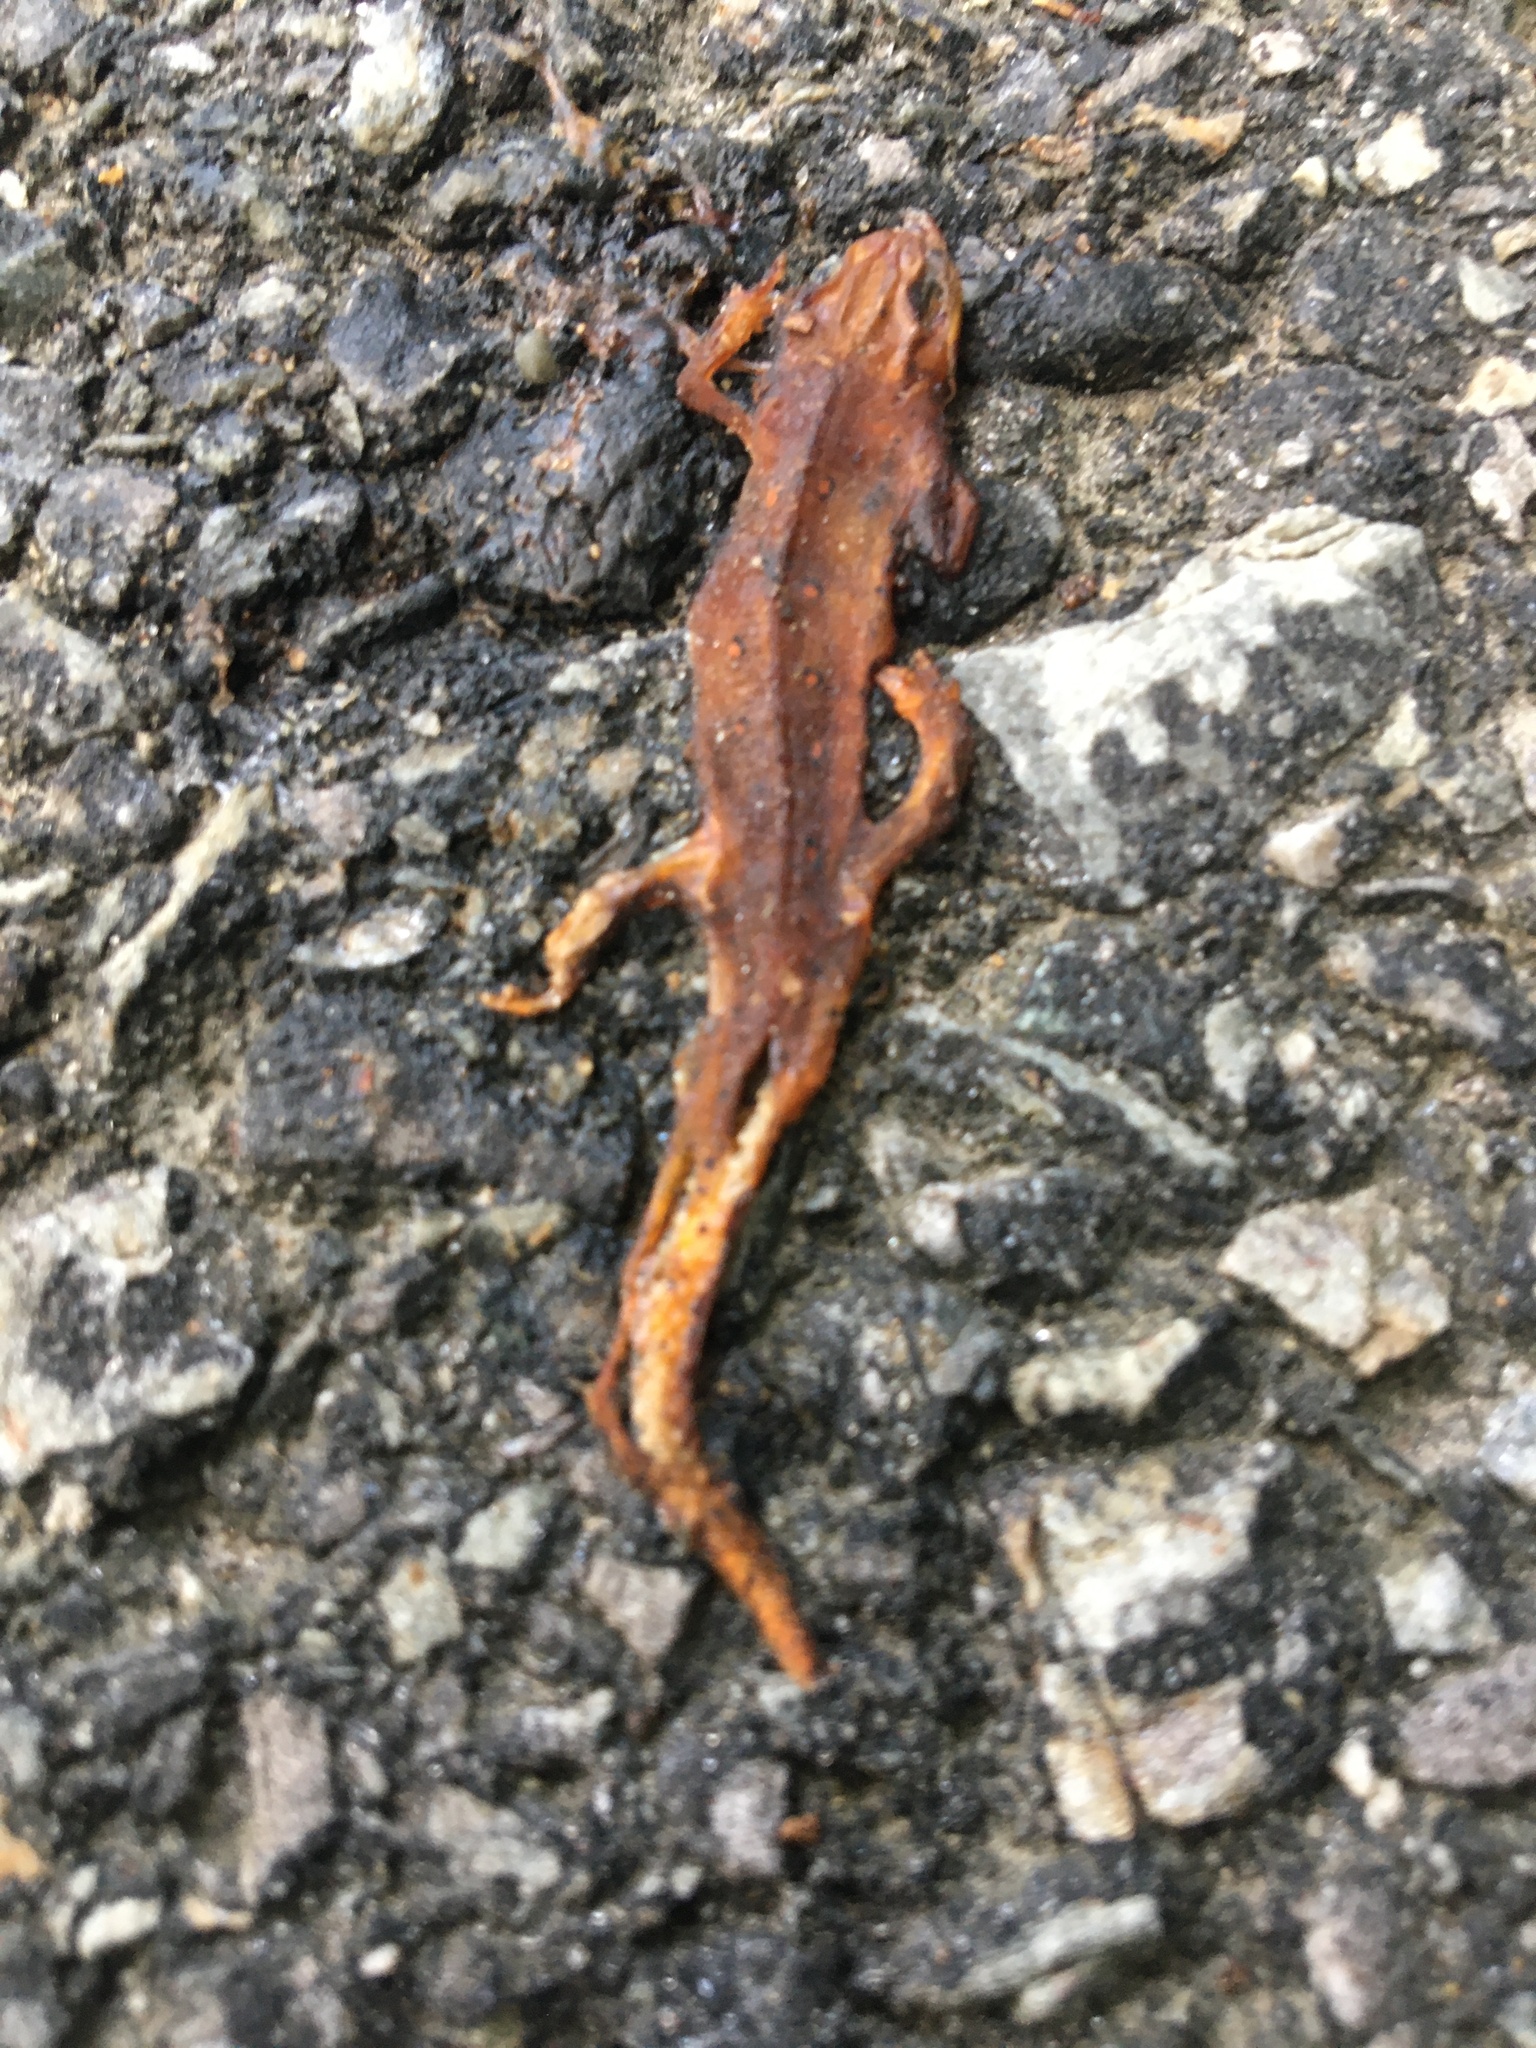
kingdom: Animalia
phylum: Chordata
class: Amphibia
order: Caudata
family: Salamandridae
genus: Notophthalmus
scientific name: Notophthalmus viridescens
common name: Eastern newt
